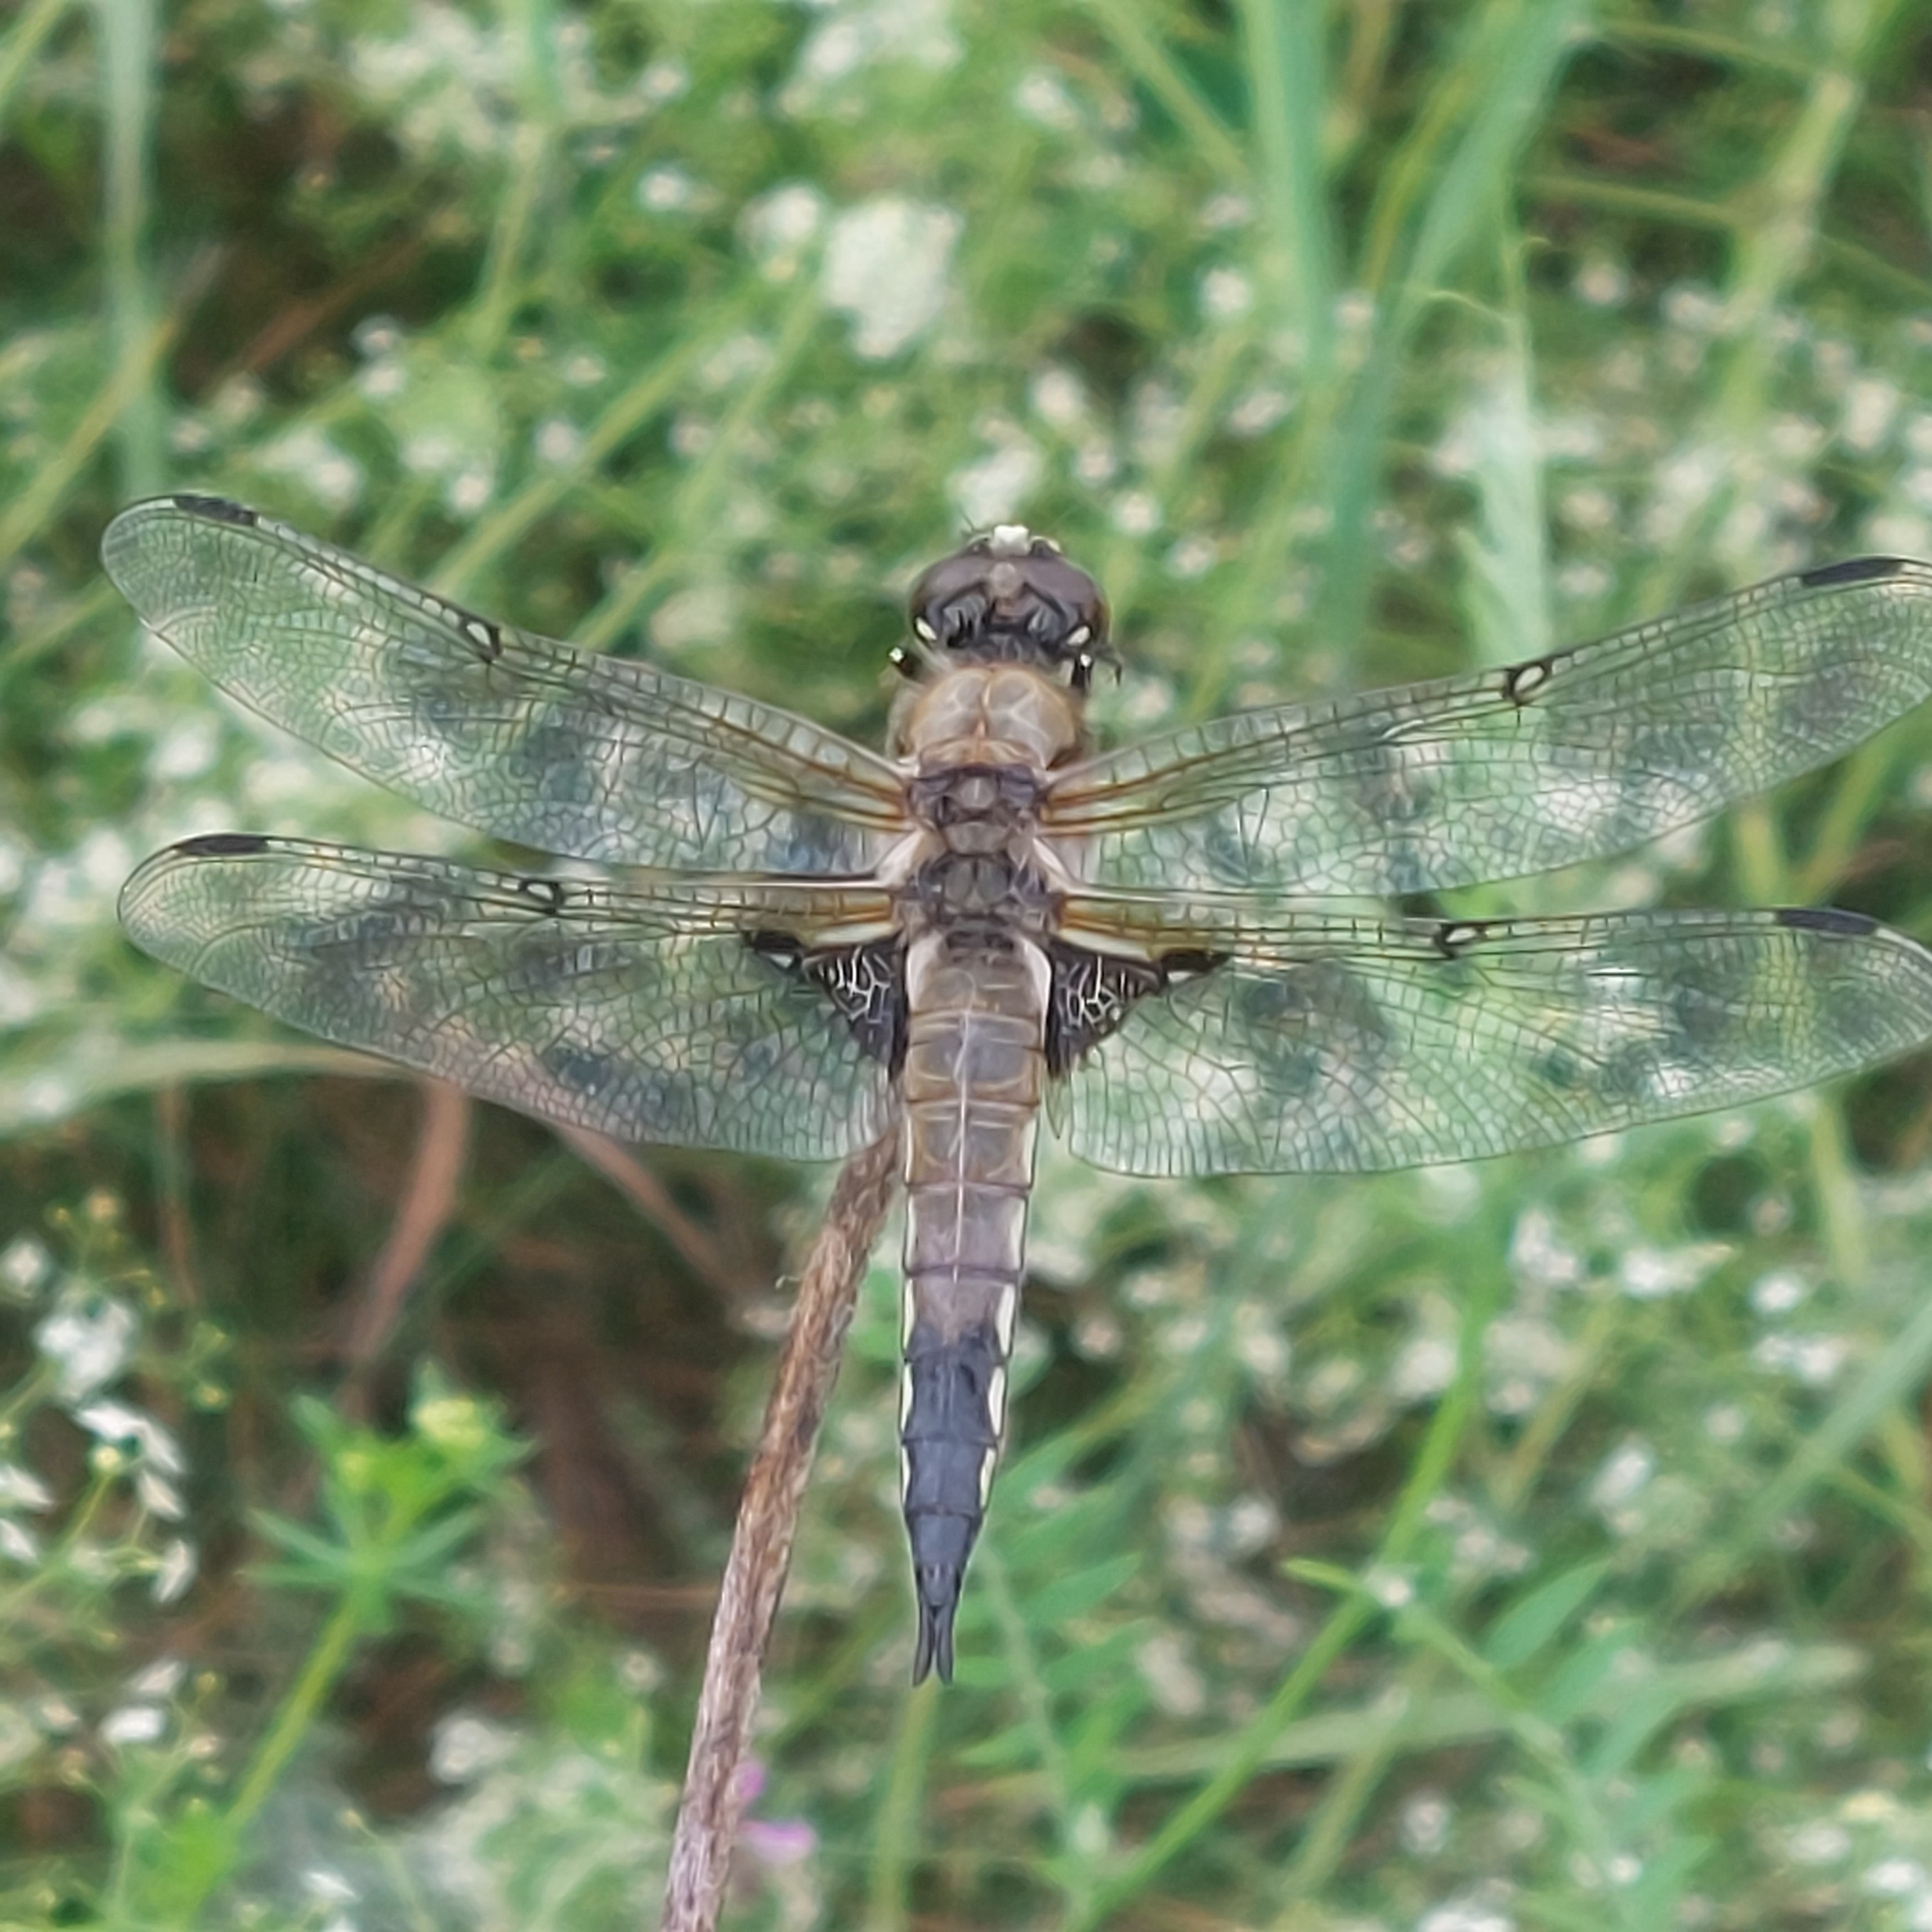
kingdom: Animalia
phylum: Arthropoda
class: Insecta
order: Odonata
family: Libellulidae
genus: Libellula
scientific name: Libellula quadrimaculata
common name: Four-spotted chaser
